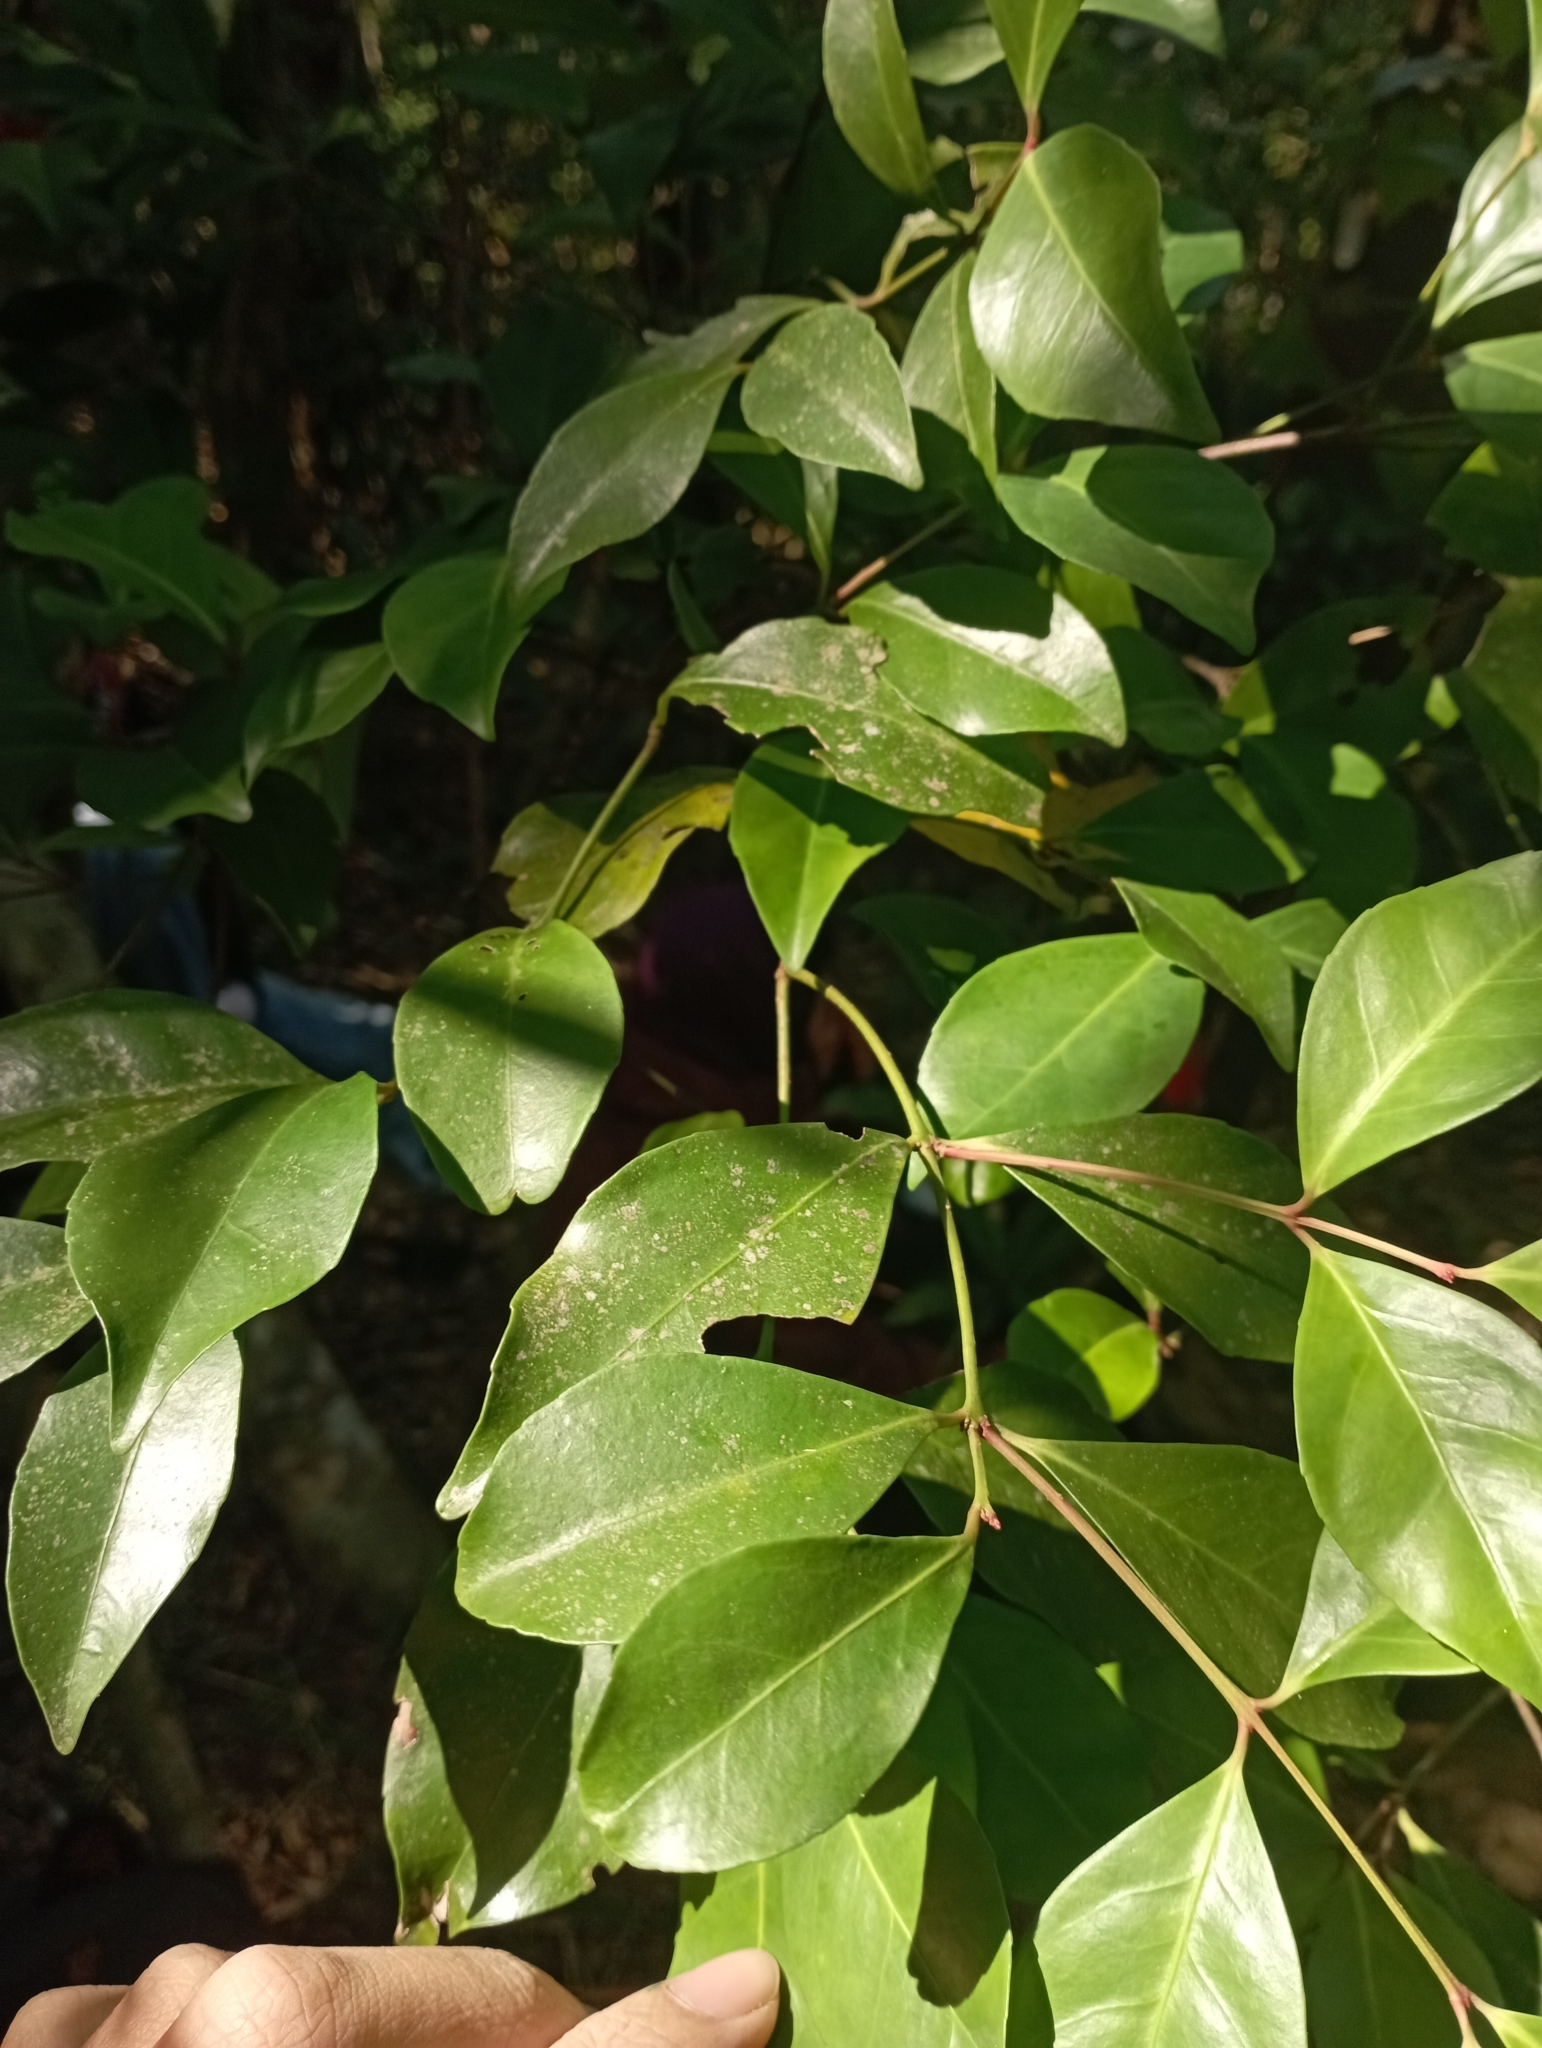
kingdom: Plantae
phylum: Tracheophyta
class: Magnoliopsida
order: Celastrales
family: Celastraceae
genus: Euonymus
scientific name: Euonymus tashiroi
